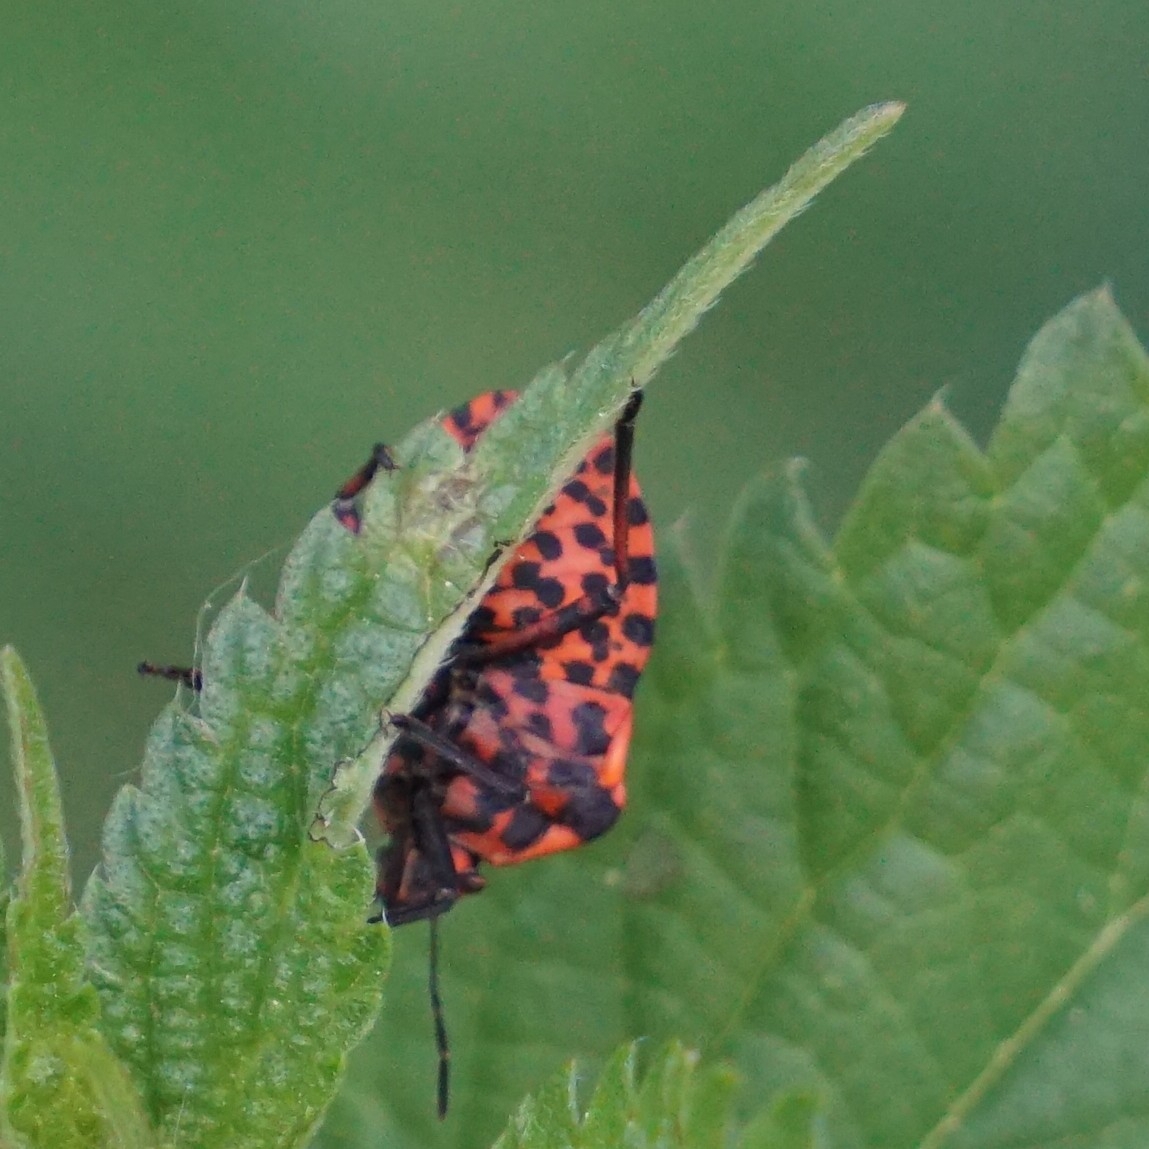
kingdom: Animalia
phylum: Arthropoda
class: Insecta
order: Hemiptera
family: Pentatomidae
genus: Graphosoma
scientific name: Graphosoma italicum
